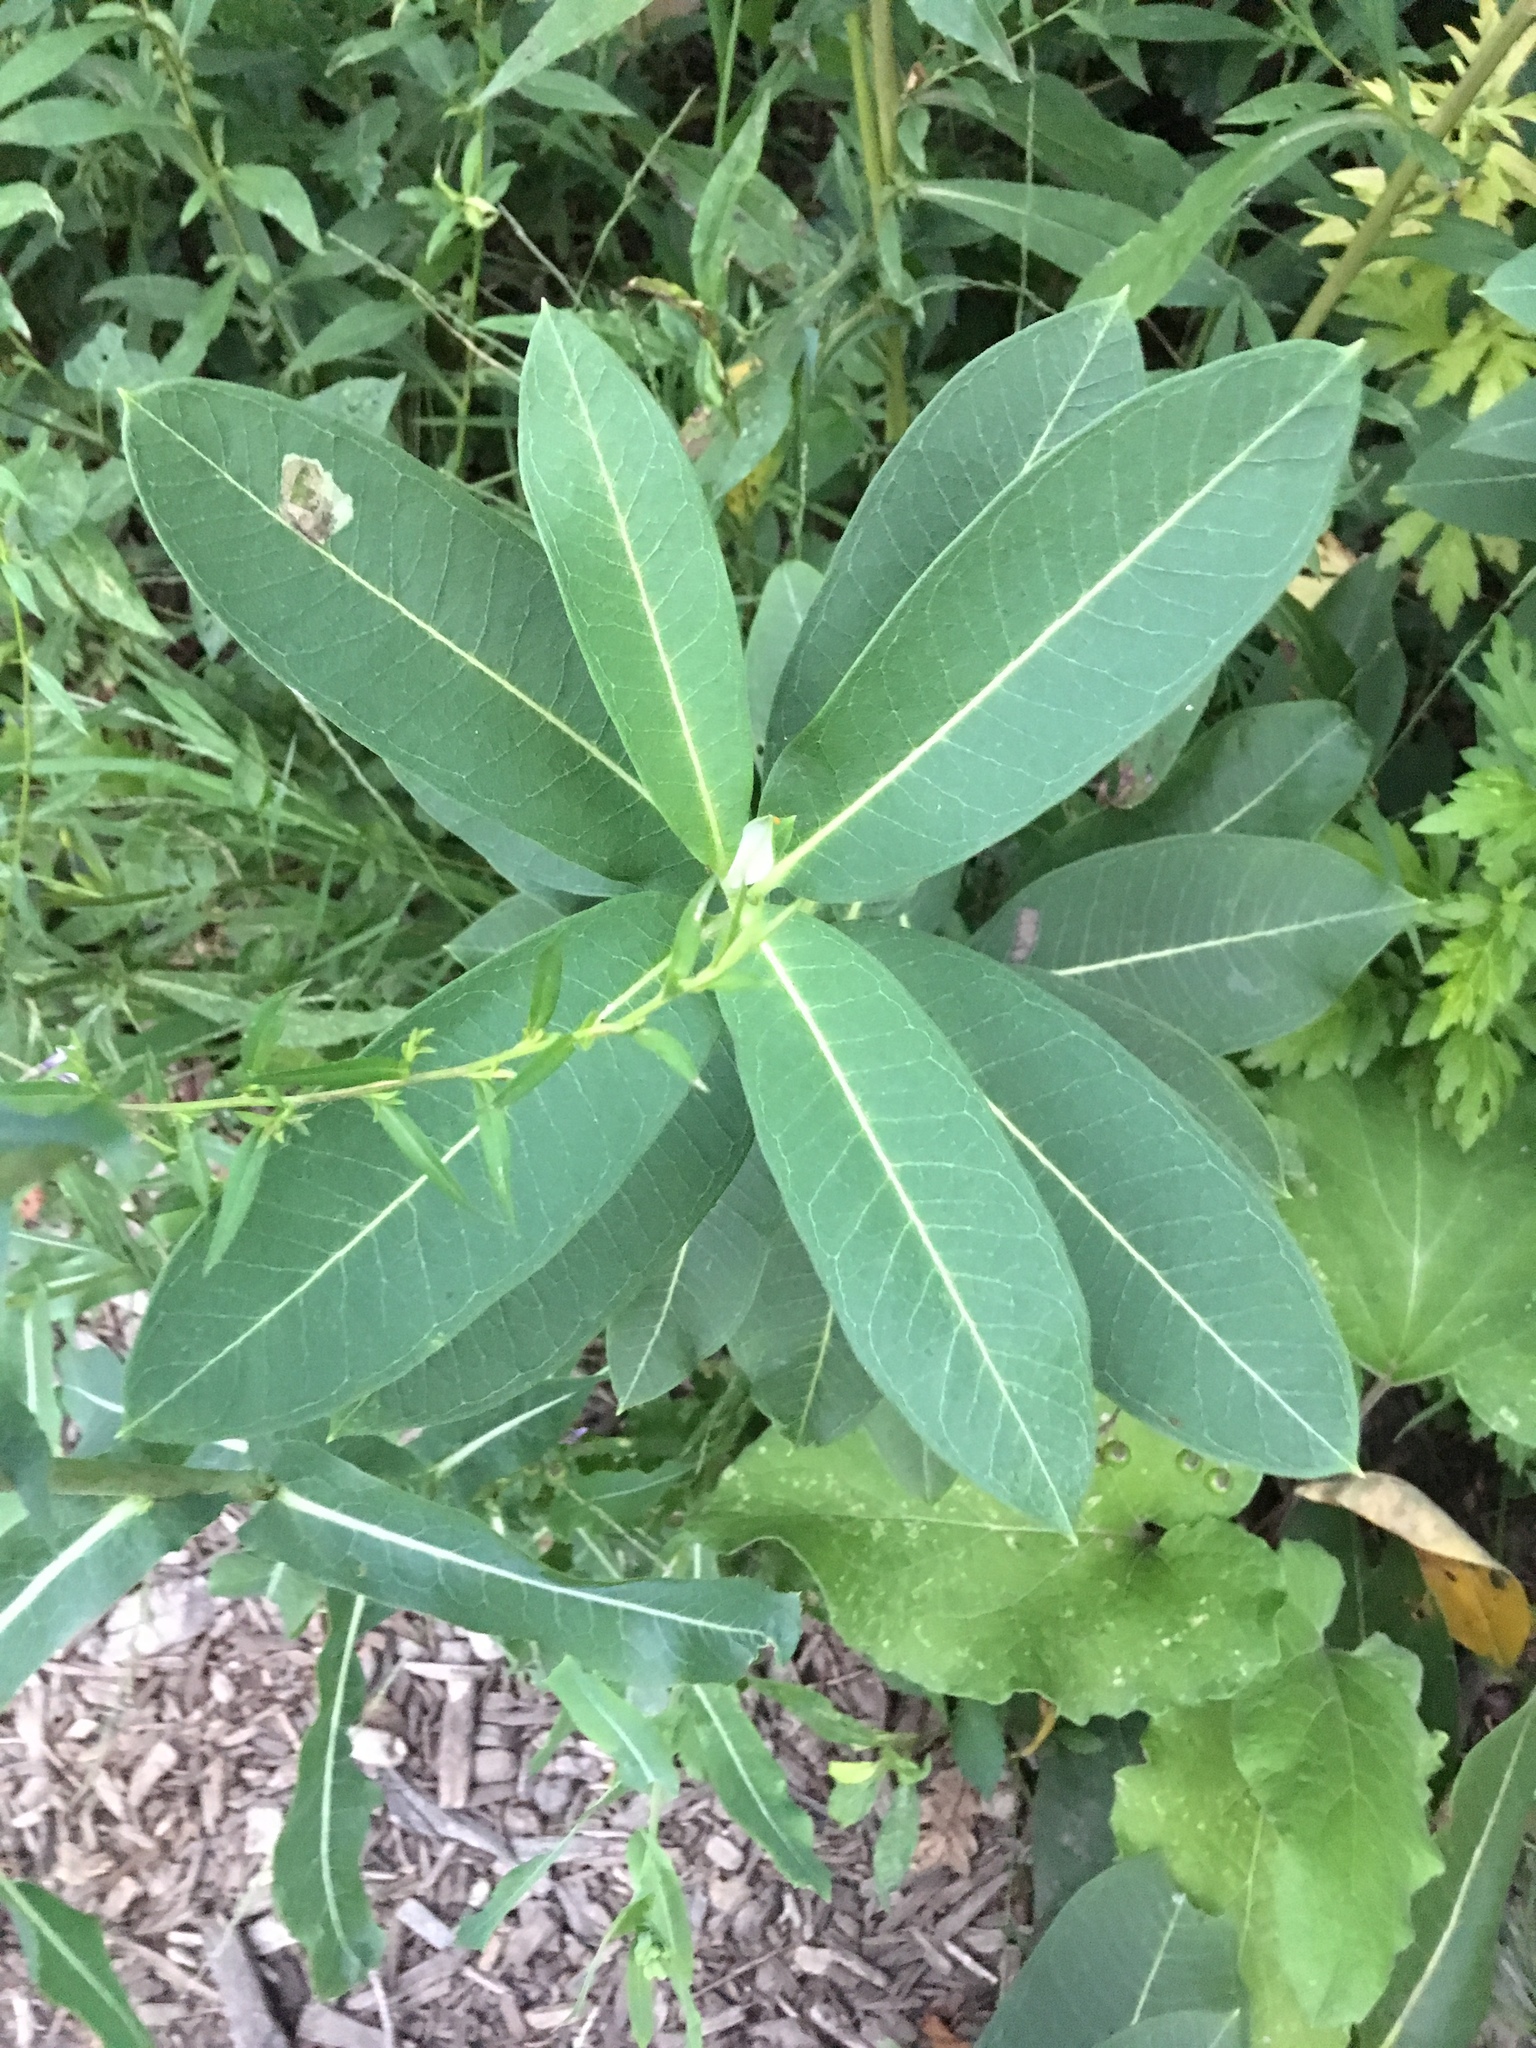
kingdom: Plantae
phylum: Tracheophyta
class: Magnoliopsida
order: Gentianales
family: Apocynaceae
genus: Asclepias
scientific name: Asclepias syriaca
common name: Common milkweed
